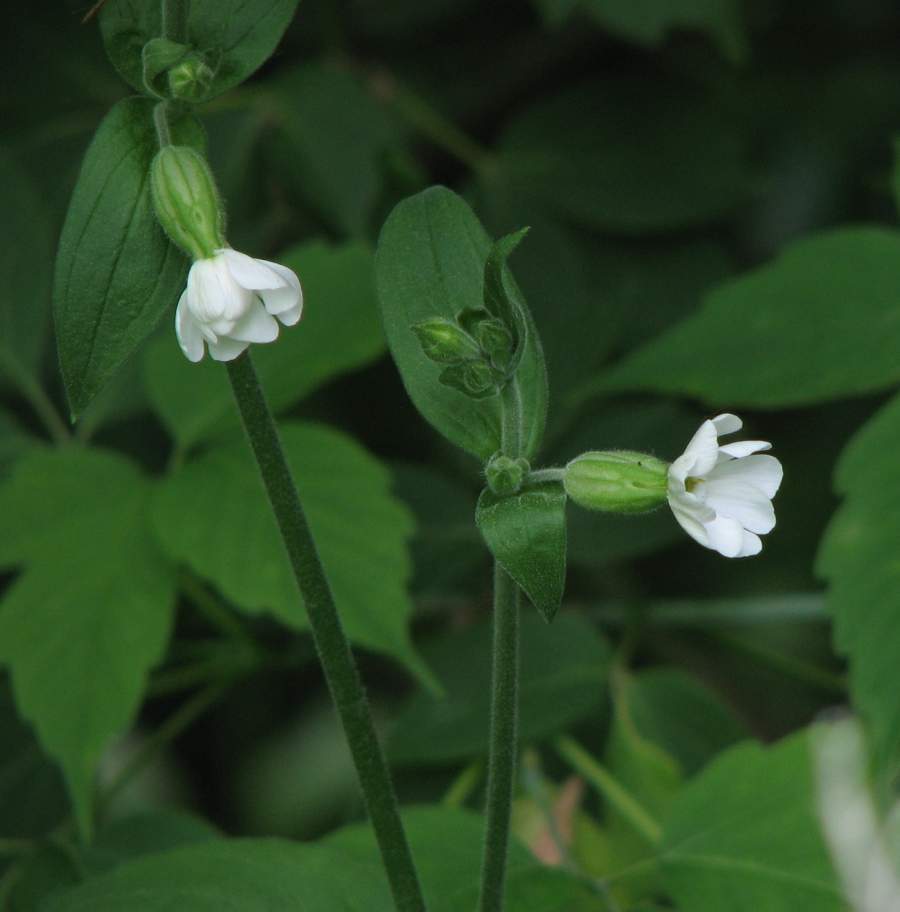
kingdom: Plantae
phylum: Tracheophyta
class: Magnoliopsida
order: Caryophyllales
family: Caryophyllaceae
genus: Silene
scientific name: Silene latifolia
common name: White campion
